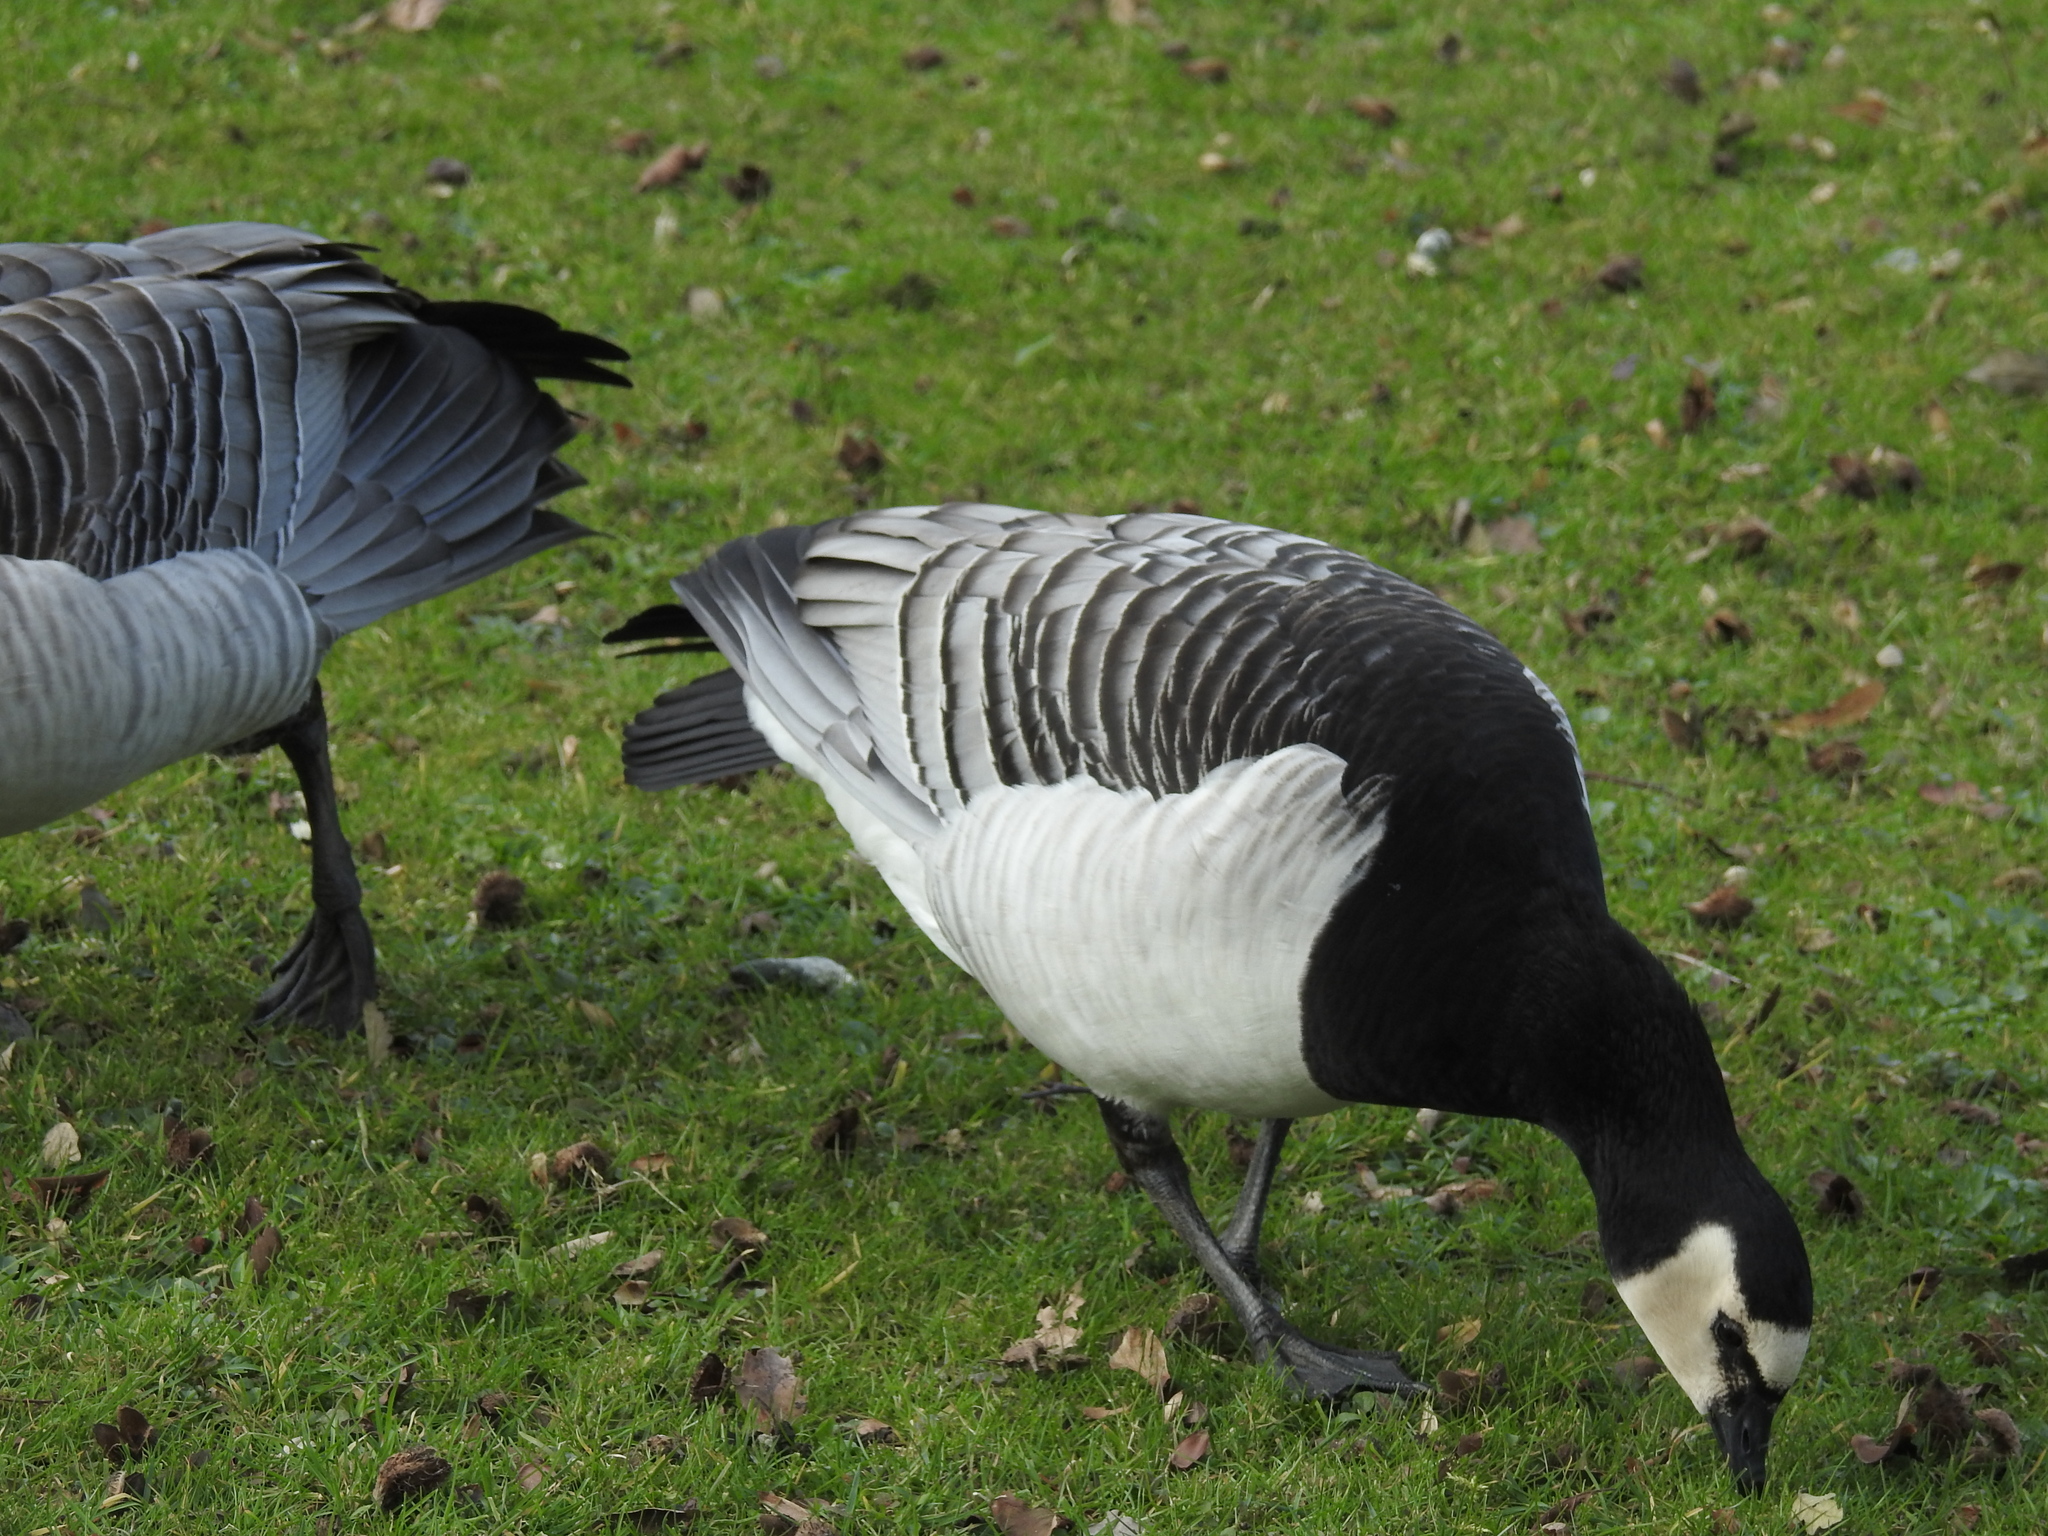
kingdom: Animalia
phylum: Chordata
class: Aves
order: Anseriformes
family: Anatidae
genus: Branta
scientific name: Branta leucopsis
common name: Barnacle goose
